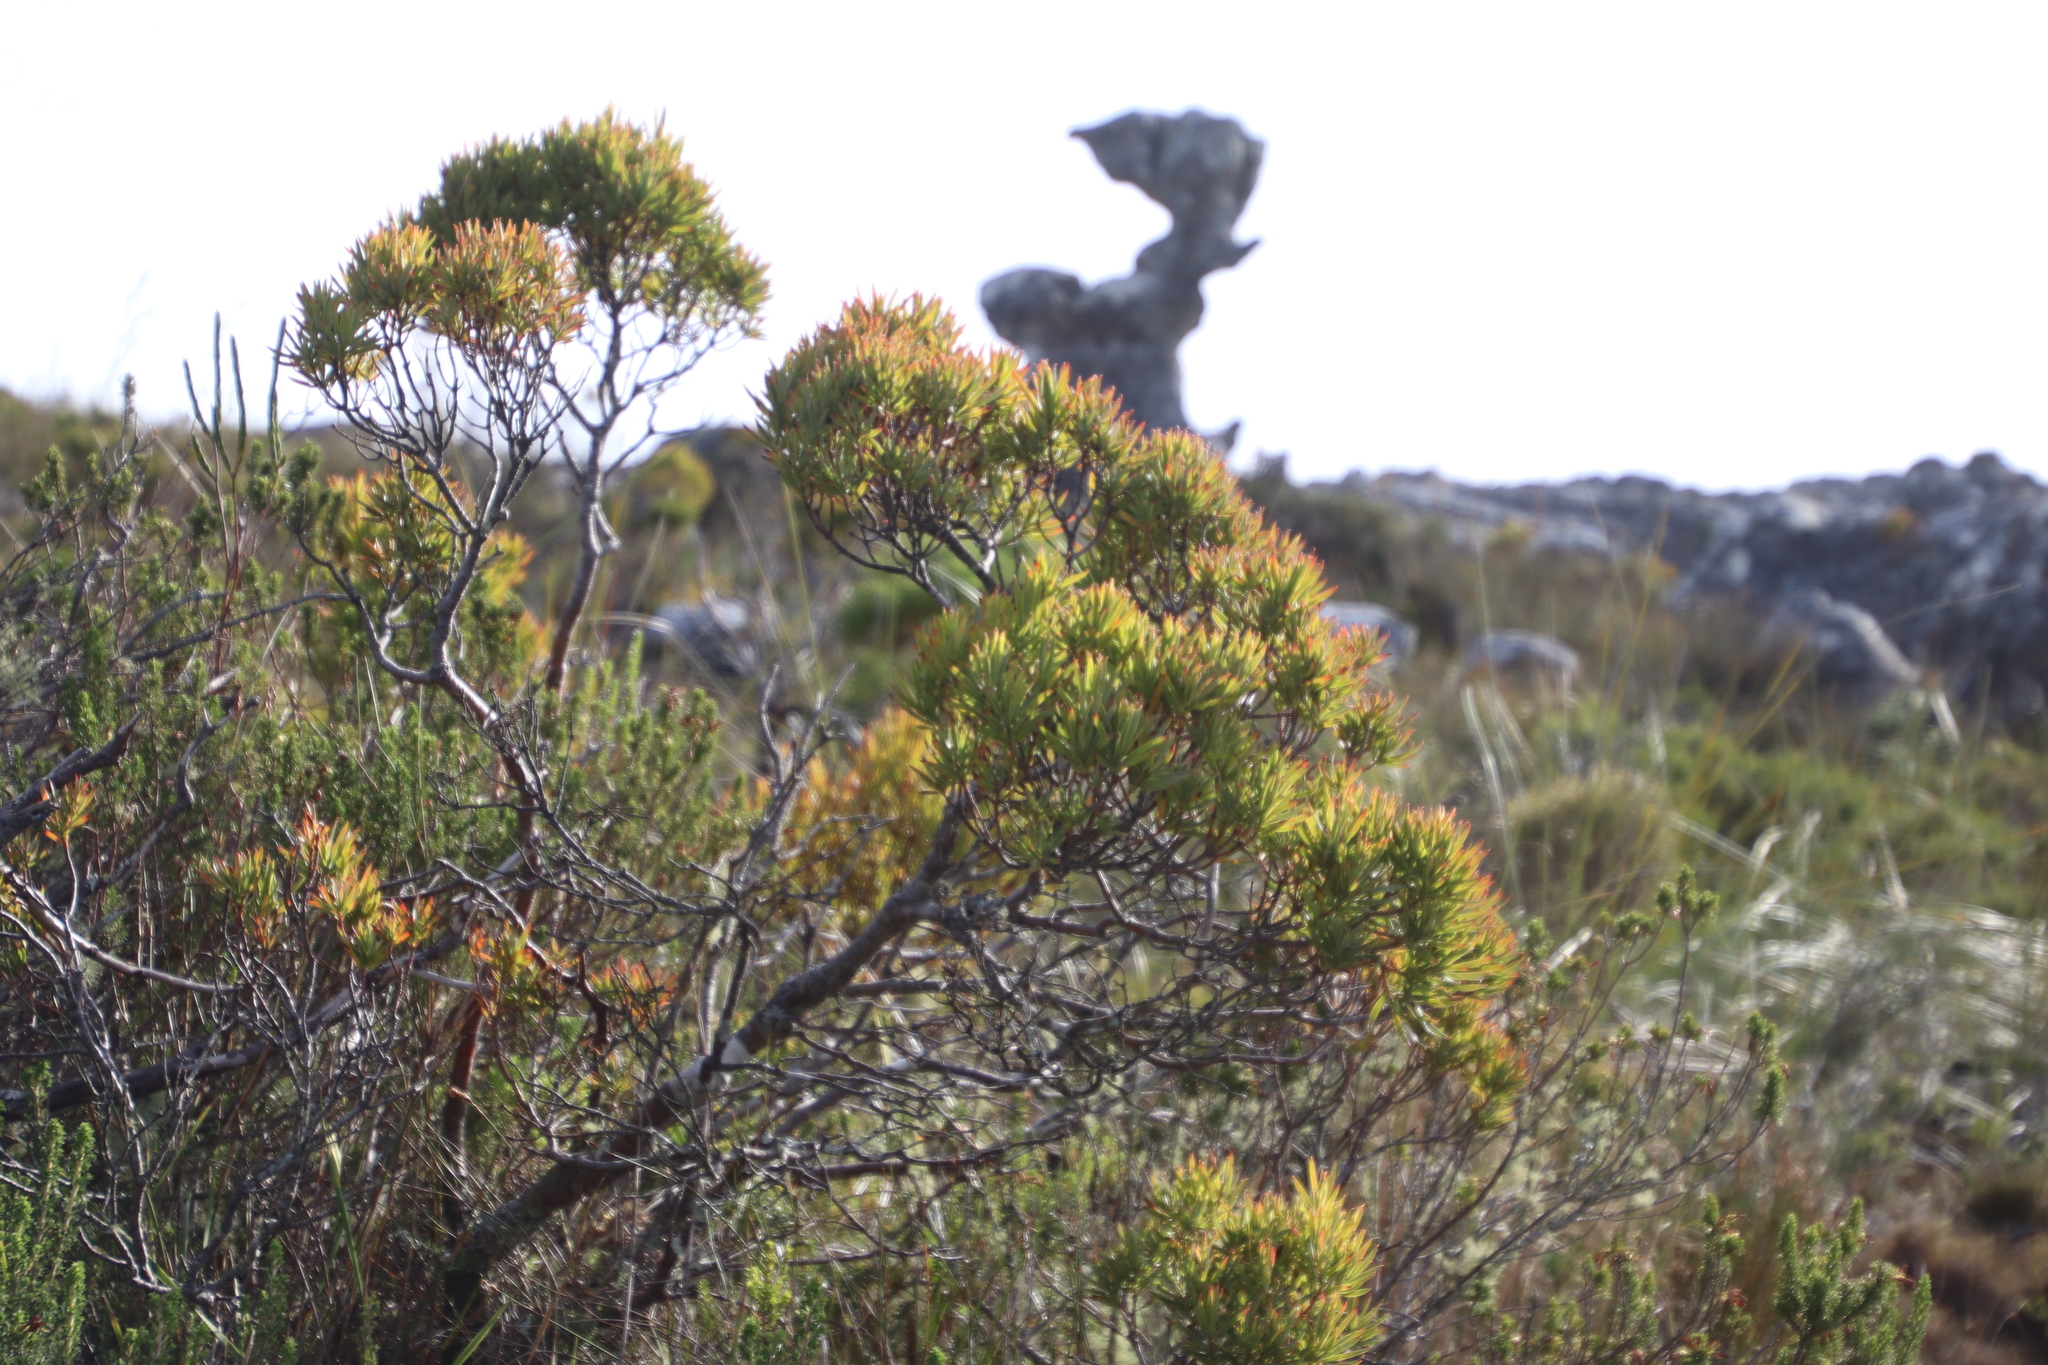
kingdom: Plantae
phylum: Tracheophyta
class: Magnoliopsida
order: Proteales
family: Proteaceae
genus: Leucadendron
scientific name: Leucadendron xanthoconus
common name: Sickle-leaf conebush
